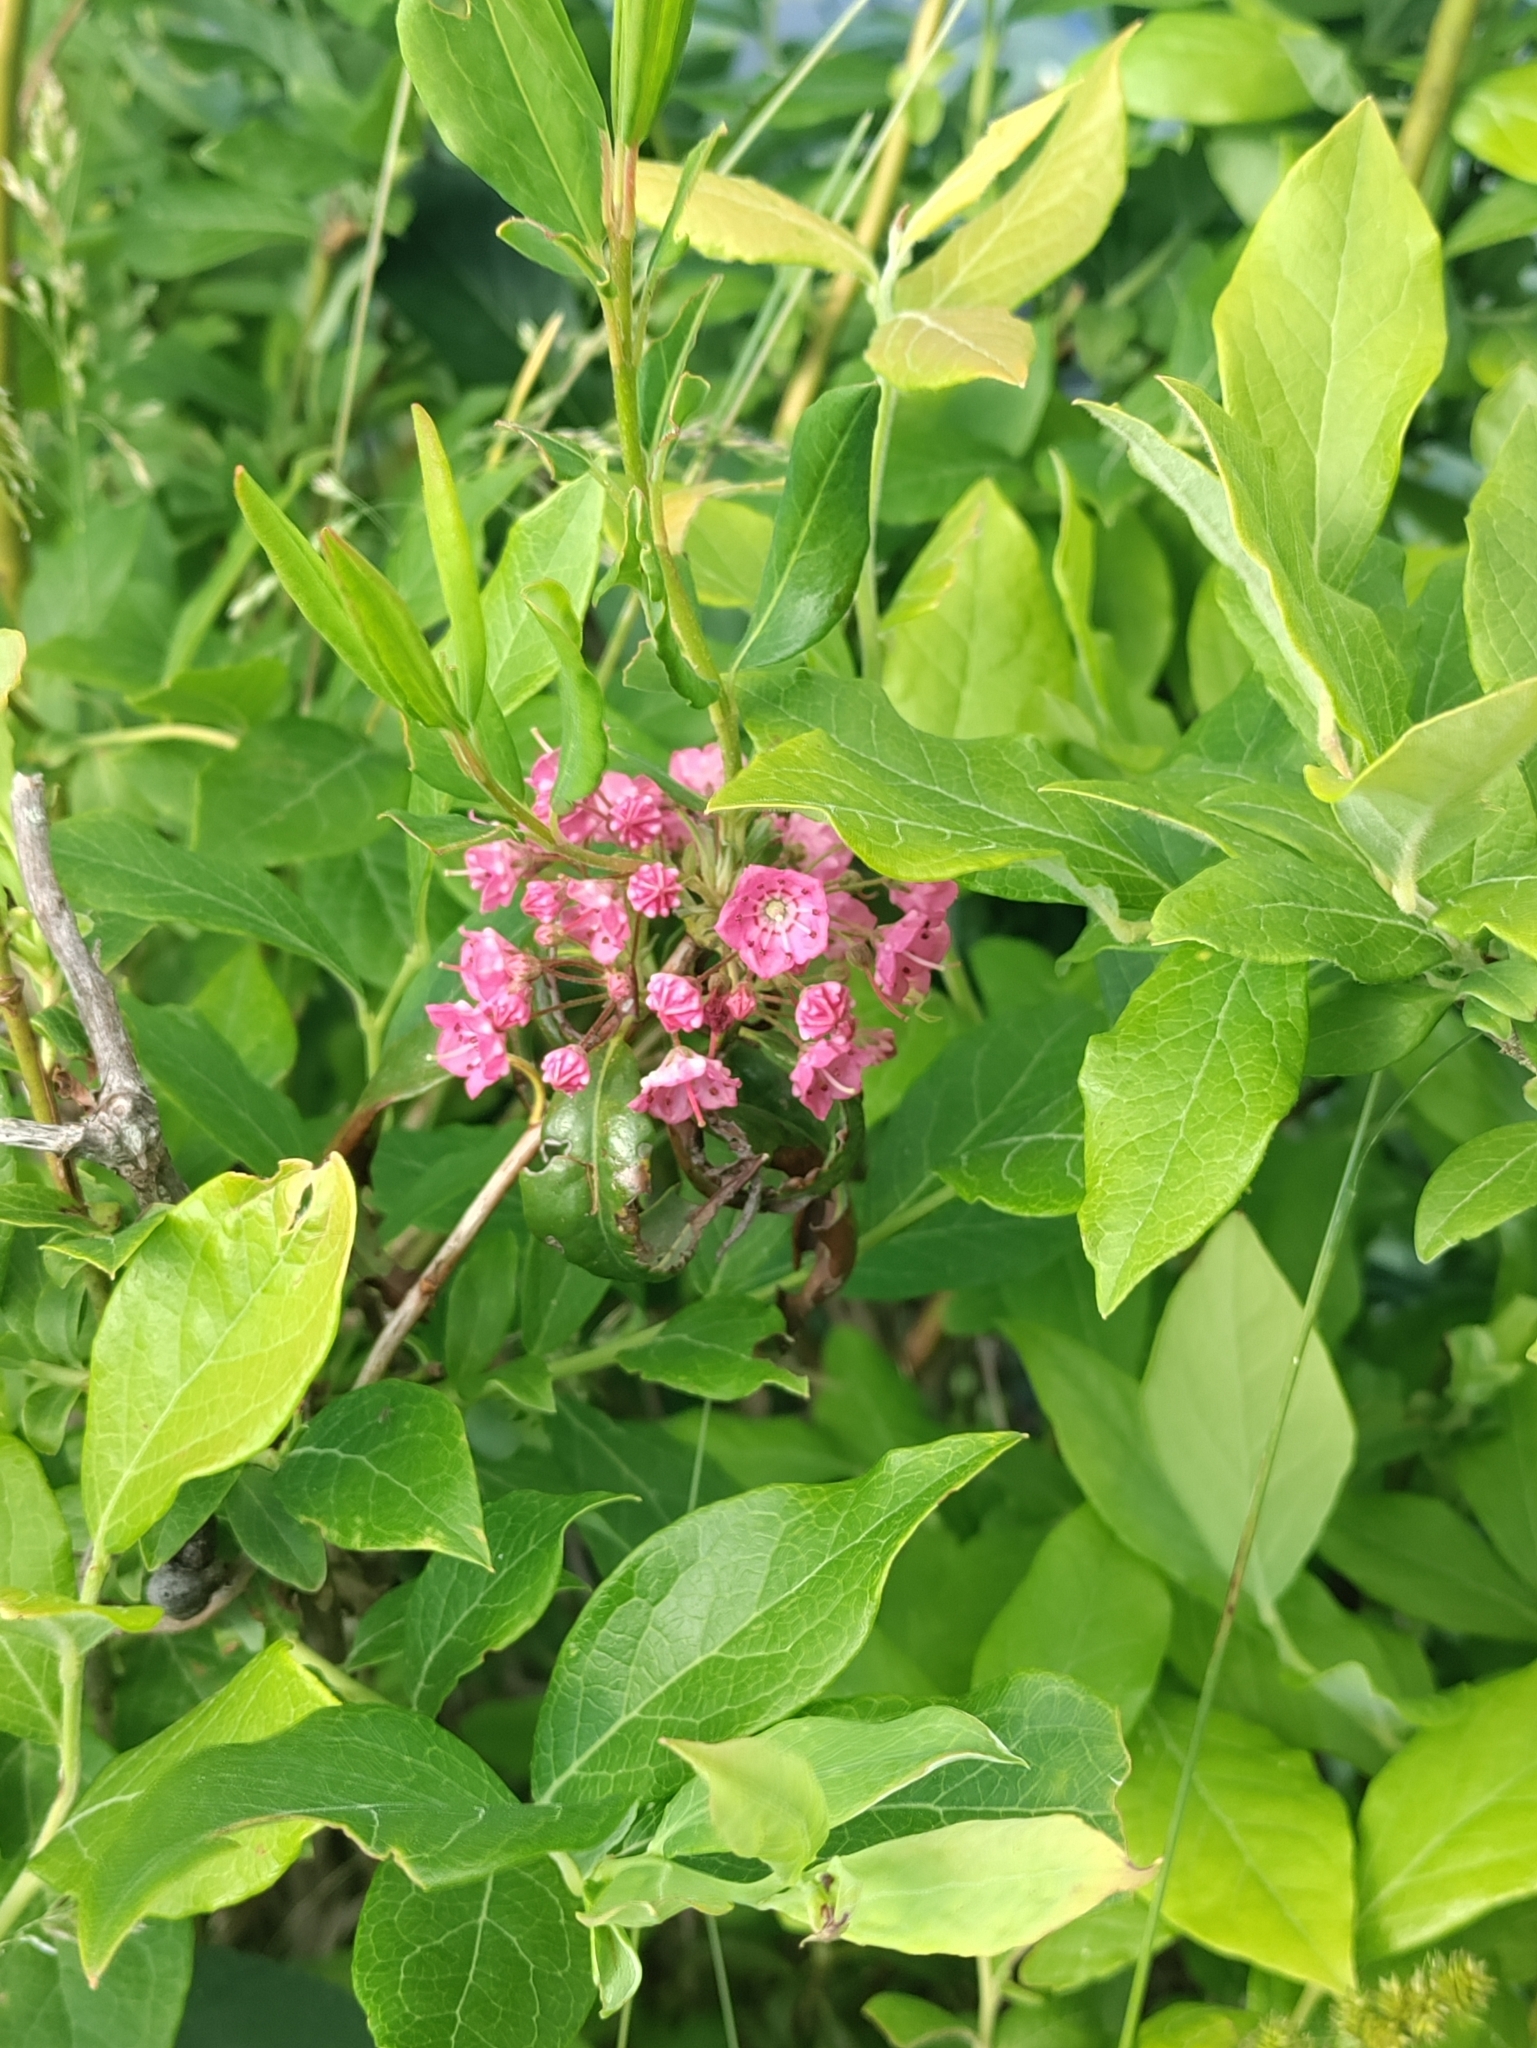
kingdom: Plantae
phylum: Tracheophyta
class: Magnoliopsida
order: Ericales
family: Ericaceae
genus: Kalmia
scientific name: Kalmia angustifolia
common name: Sheep-laurel
